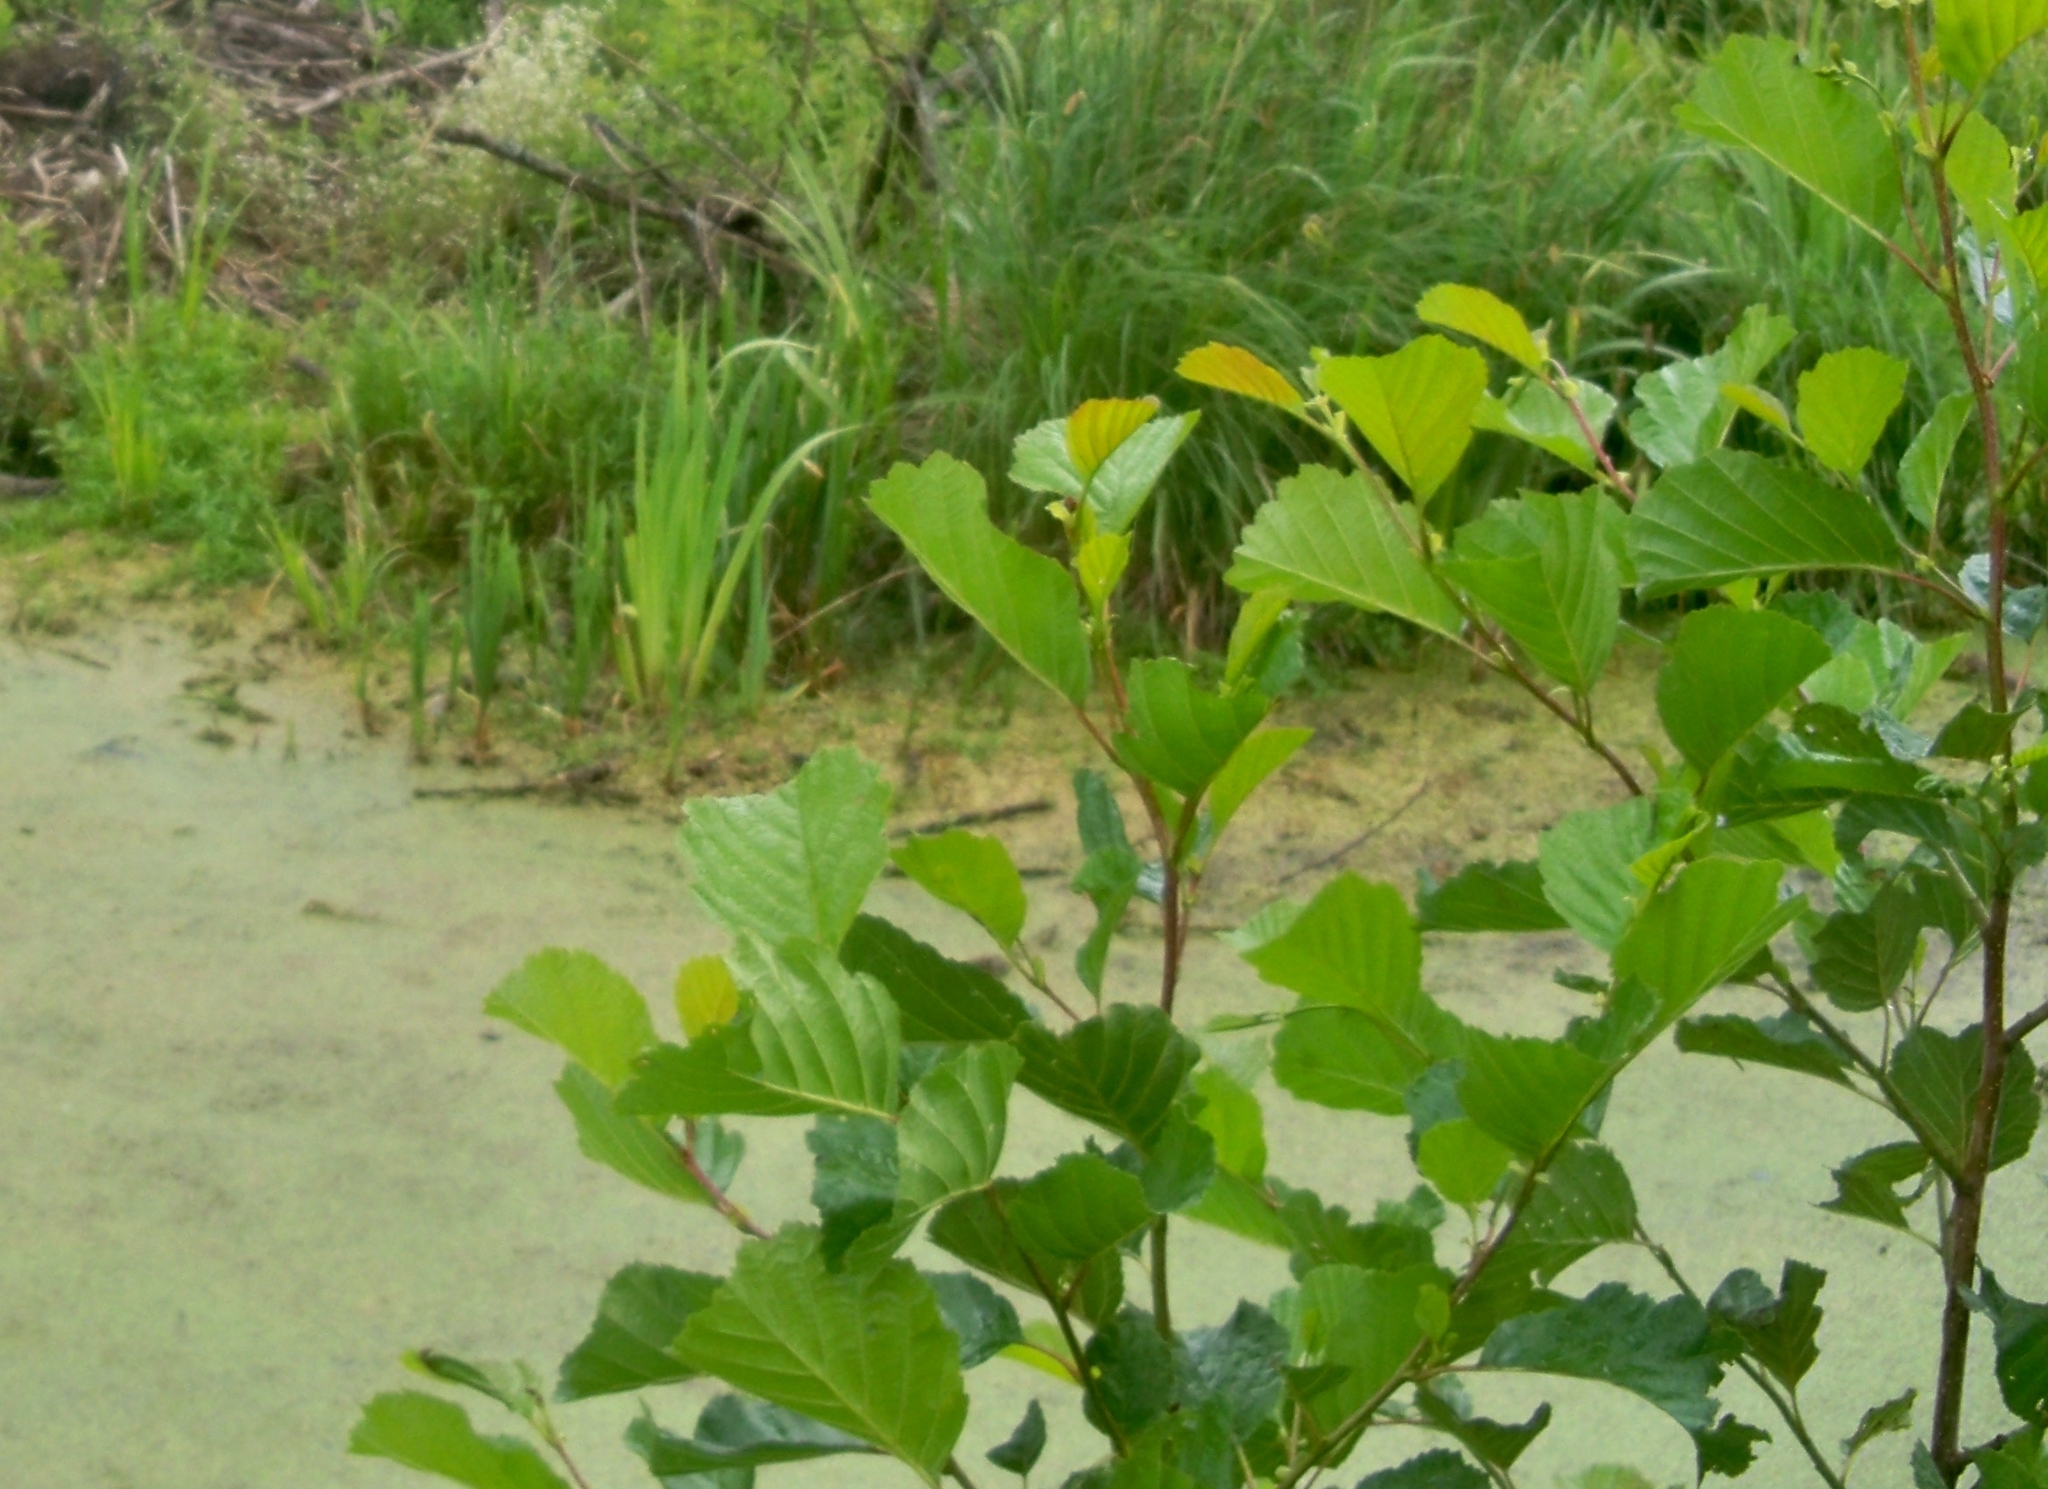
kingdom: Plantae
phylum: Tracheophyta
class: Magnoliopsida
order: Fagales
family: Betulaceae
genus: Alnus
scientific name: Alnus glutinosa
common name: Black alder
